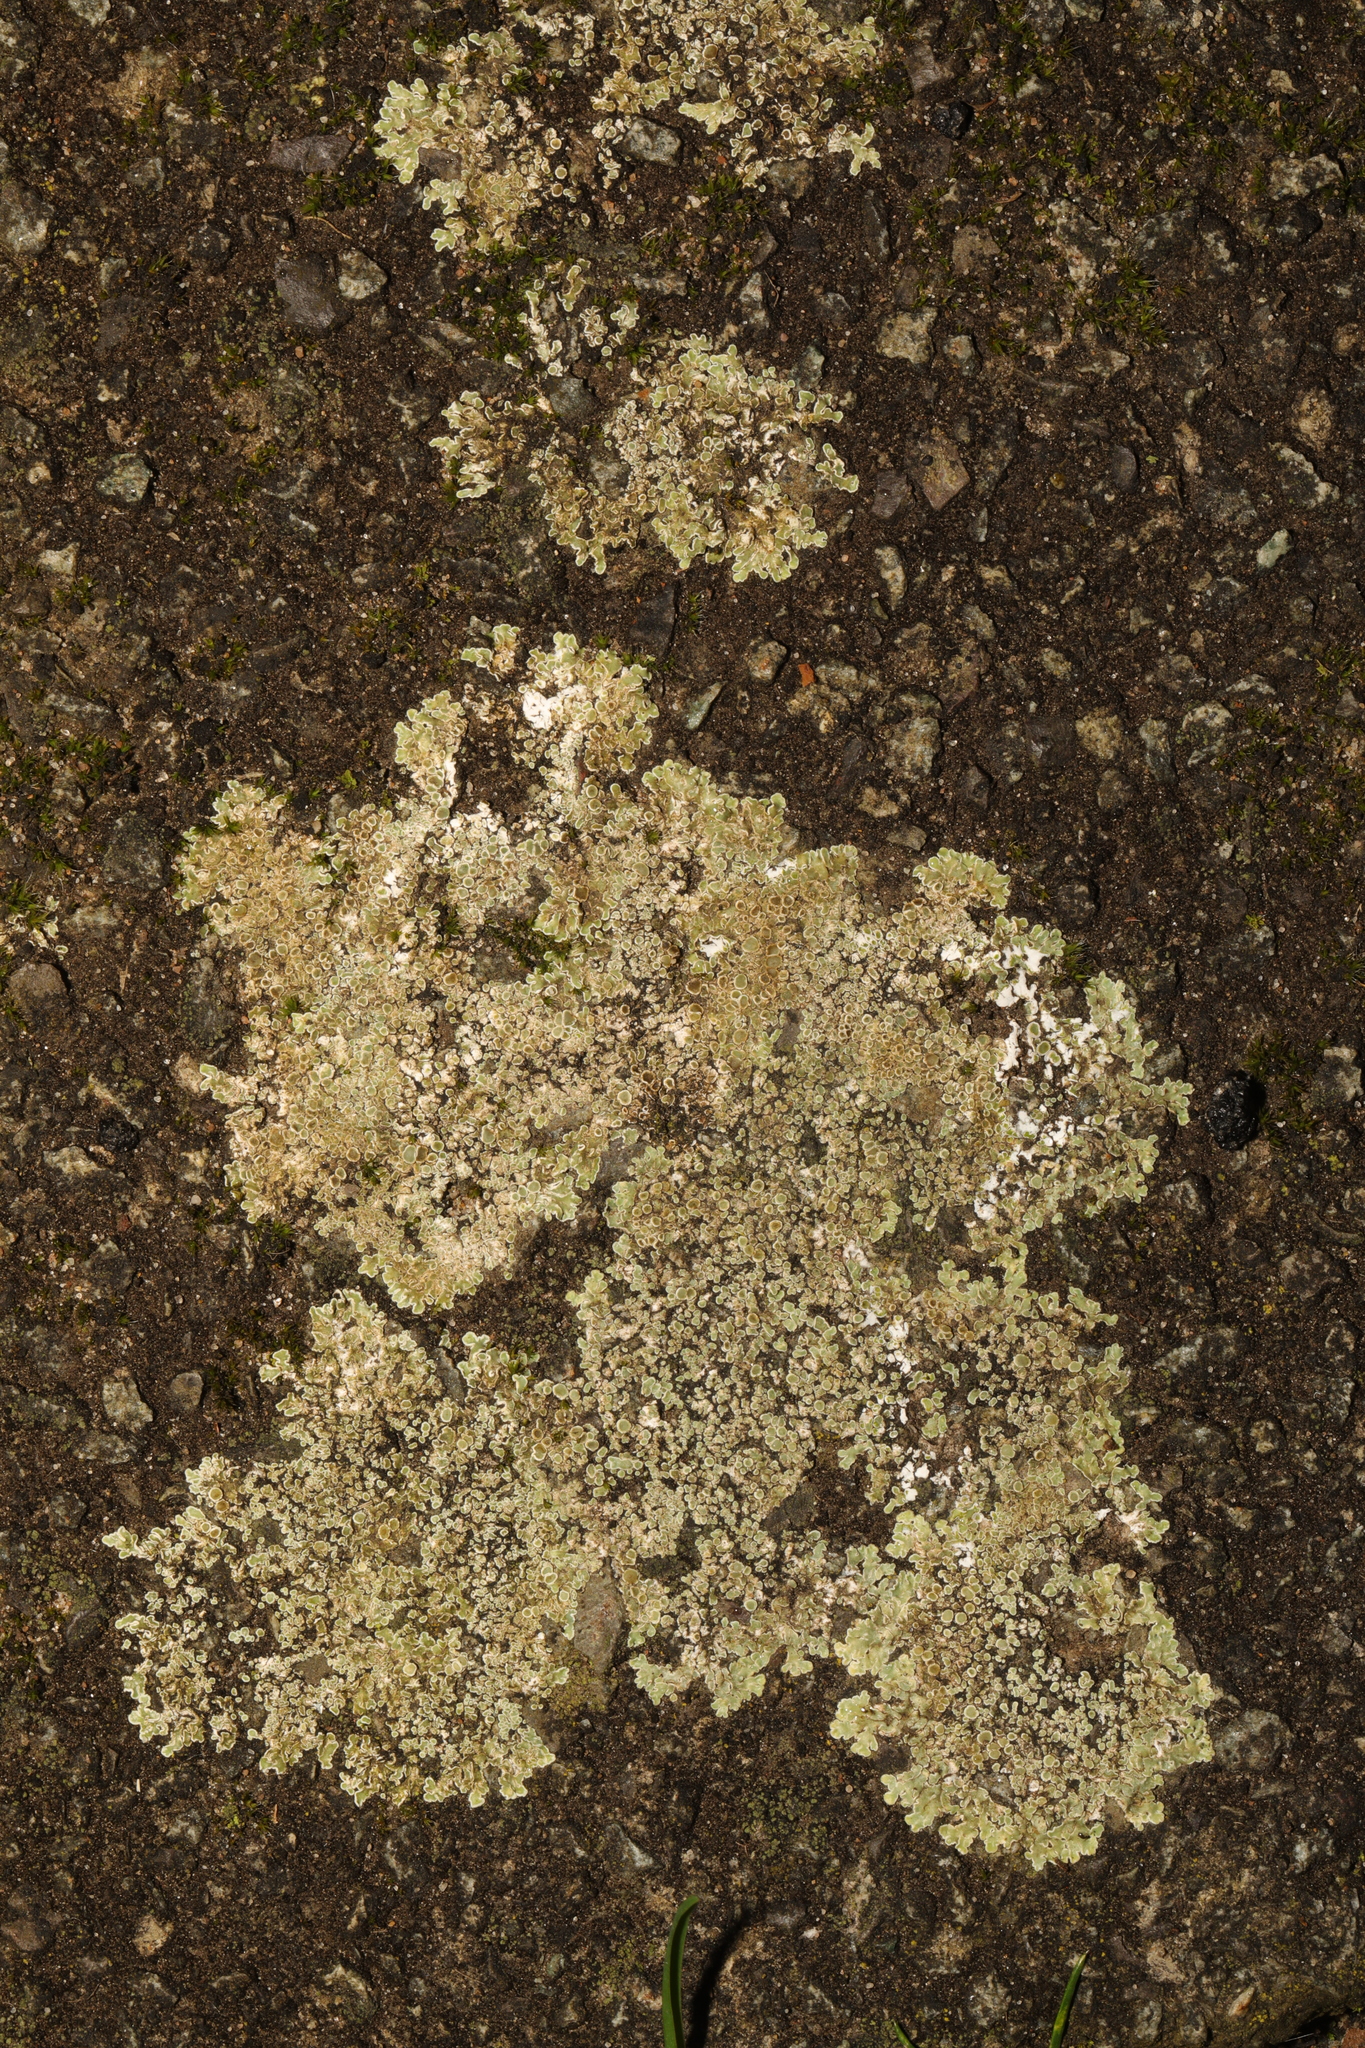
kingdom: Fungi
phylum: Ascomycota
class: Lecanoromycetes
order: Lecanorales
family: Lecanoraceae
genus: Protoparmeliopsis
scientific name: Protoparmeliopsis muralis
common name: Stonewall rim lichen
